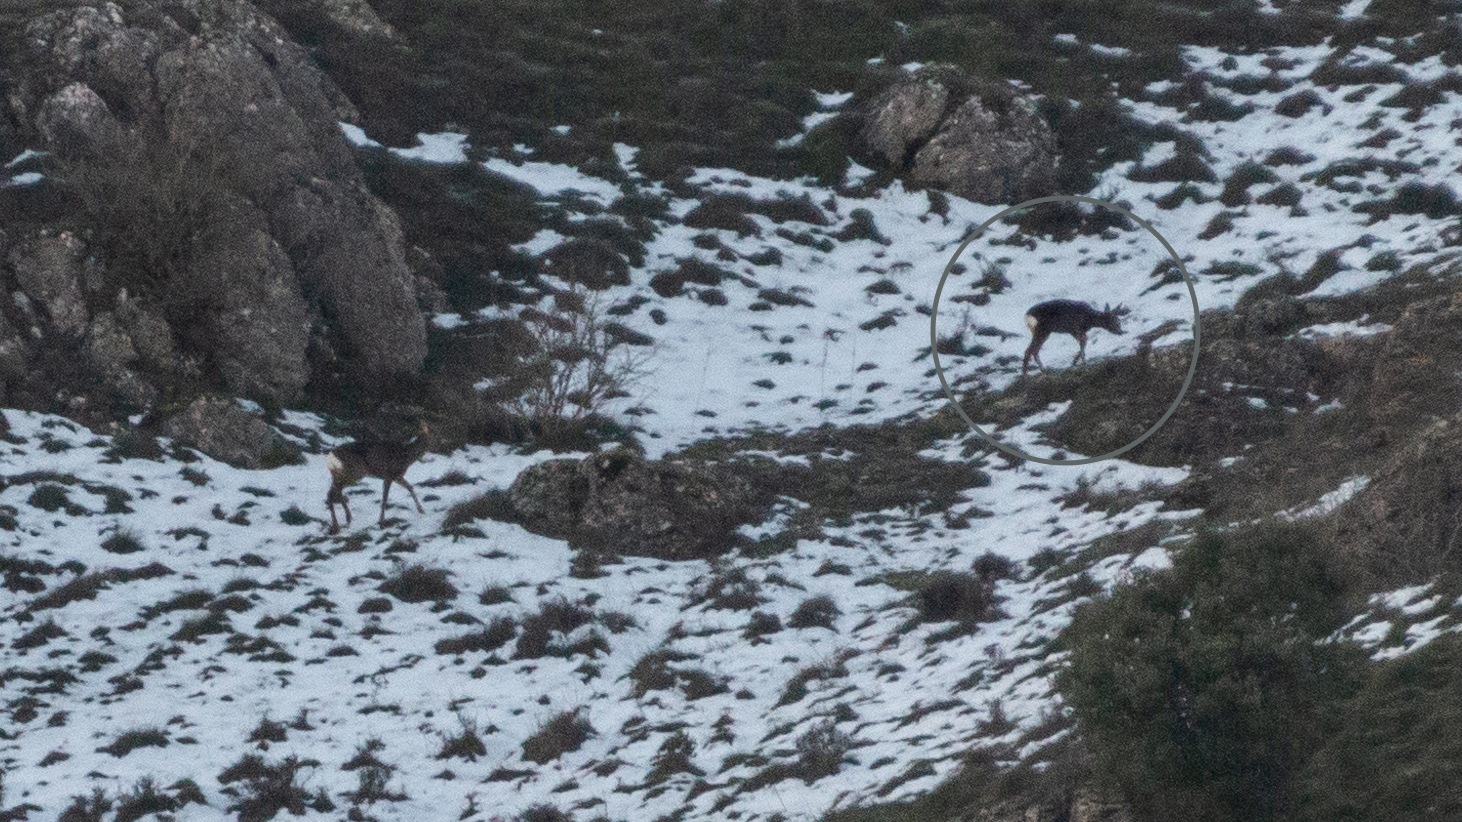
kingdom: Animalia
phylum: Chordata
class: Mammalia
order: Artiodactyla
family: Cervidae
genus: Capreolus
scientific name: Capreolus capreolus
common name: Western roe deer
